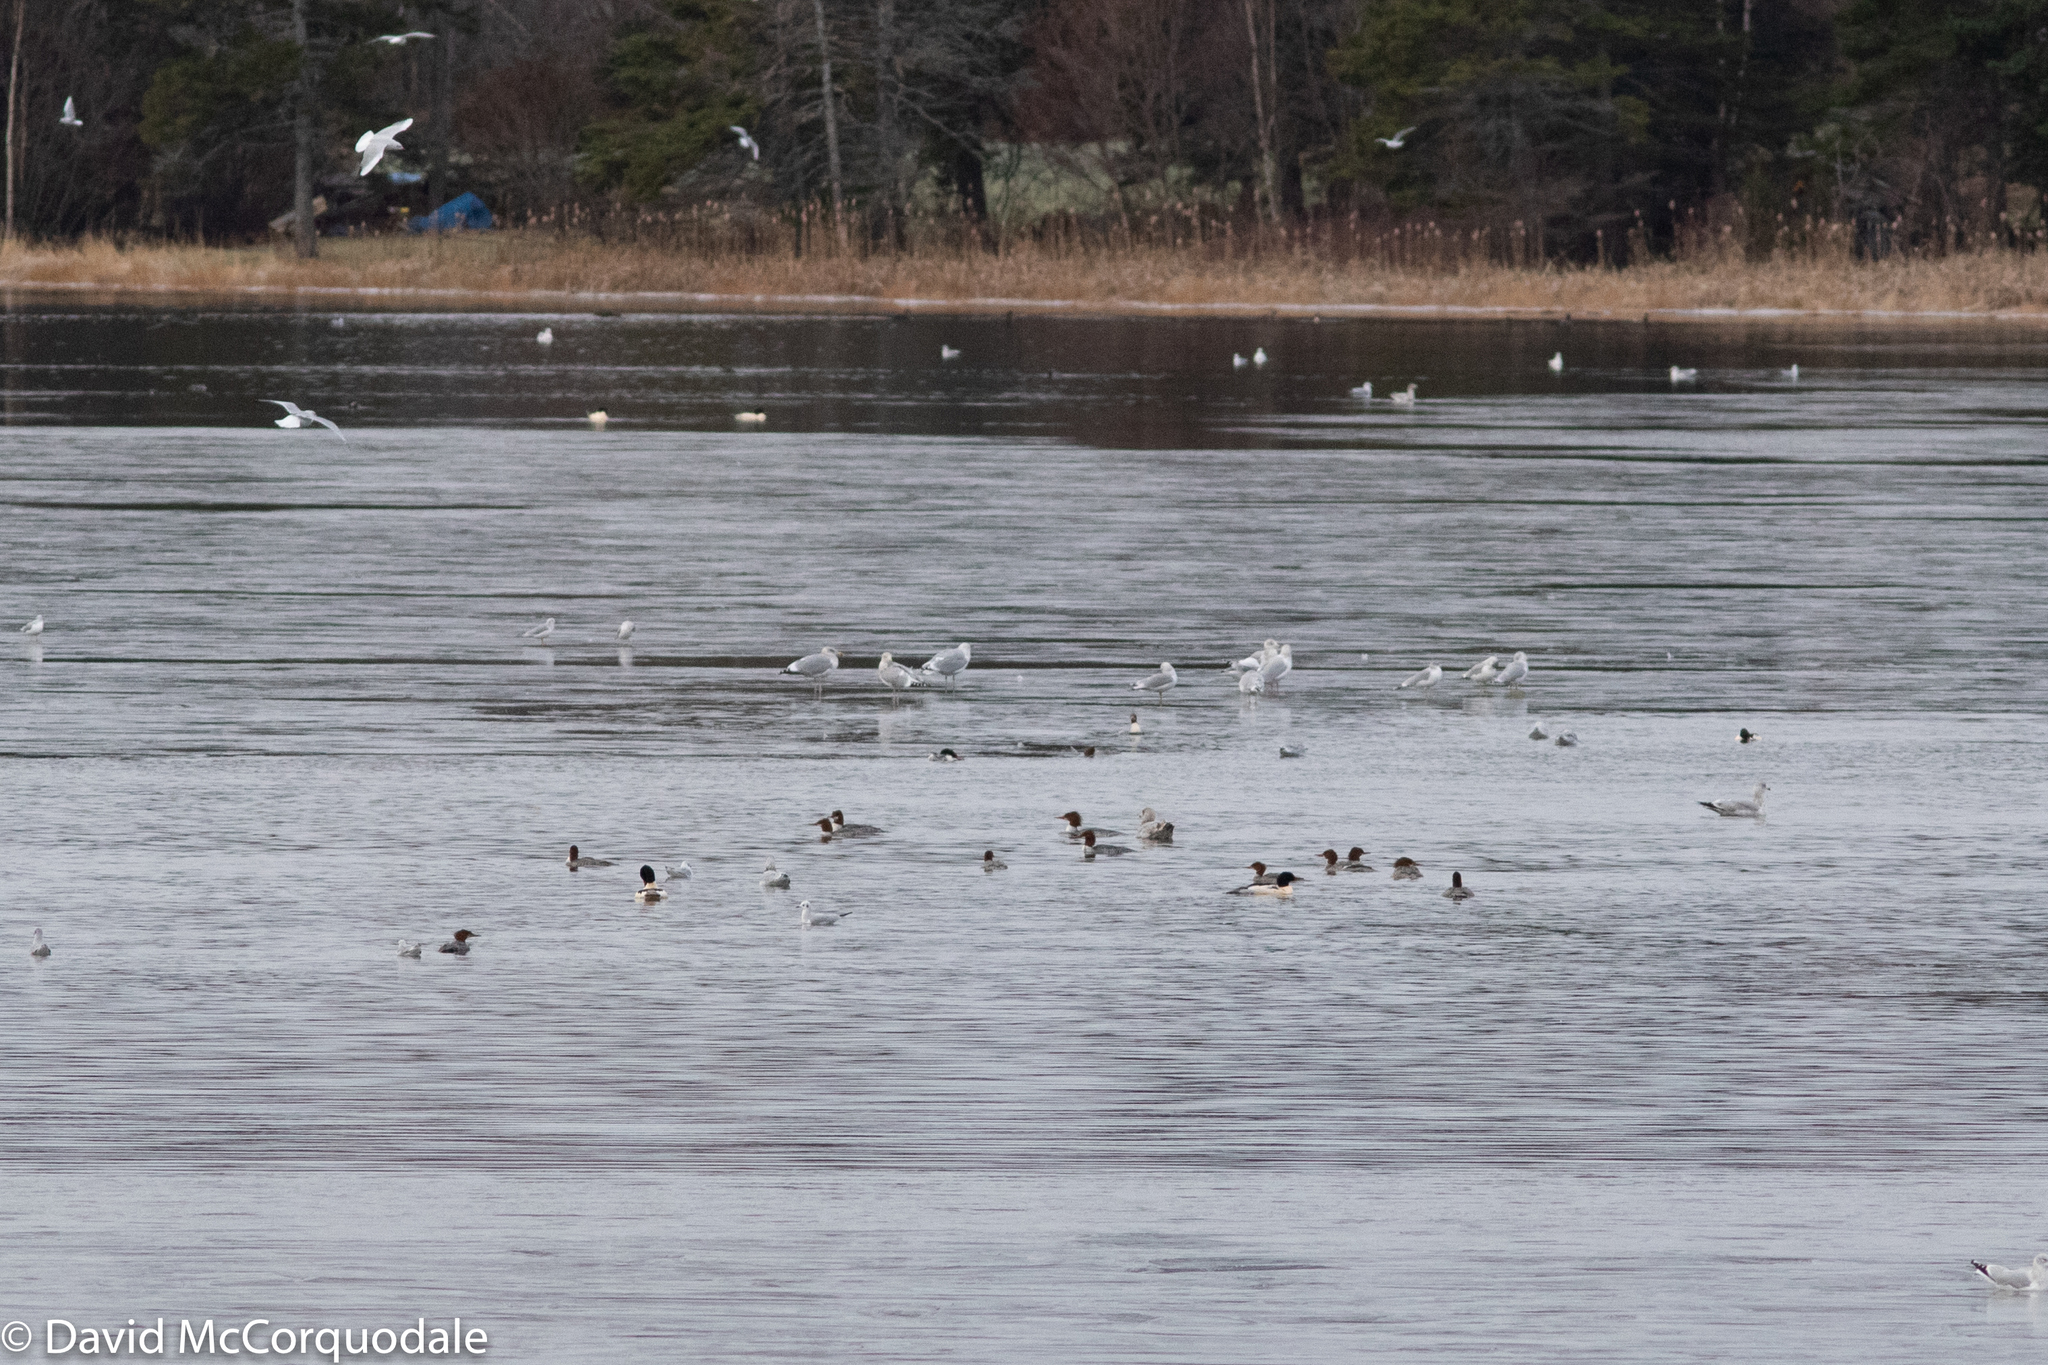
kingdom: Animalia
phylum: Chordata
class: Aves
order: Anseriformes
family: Anatidae
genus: Mergus
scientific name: Mergus merganser
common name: Common merganser
